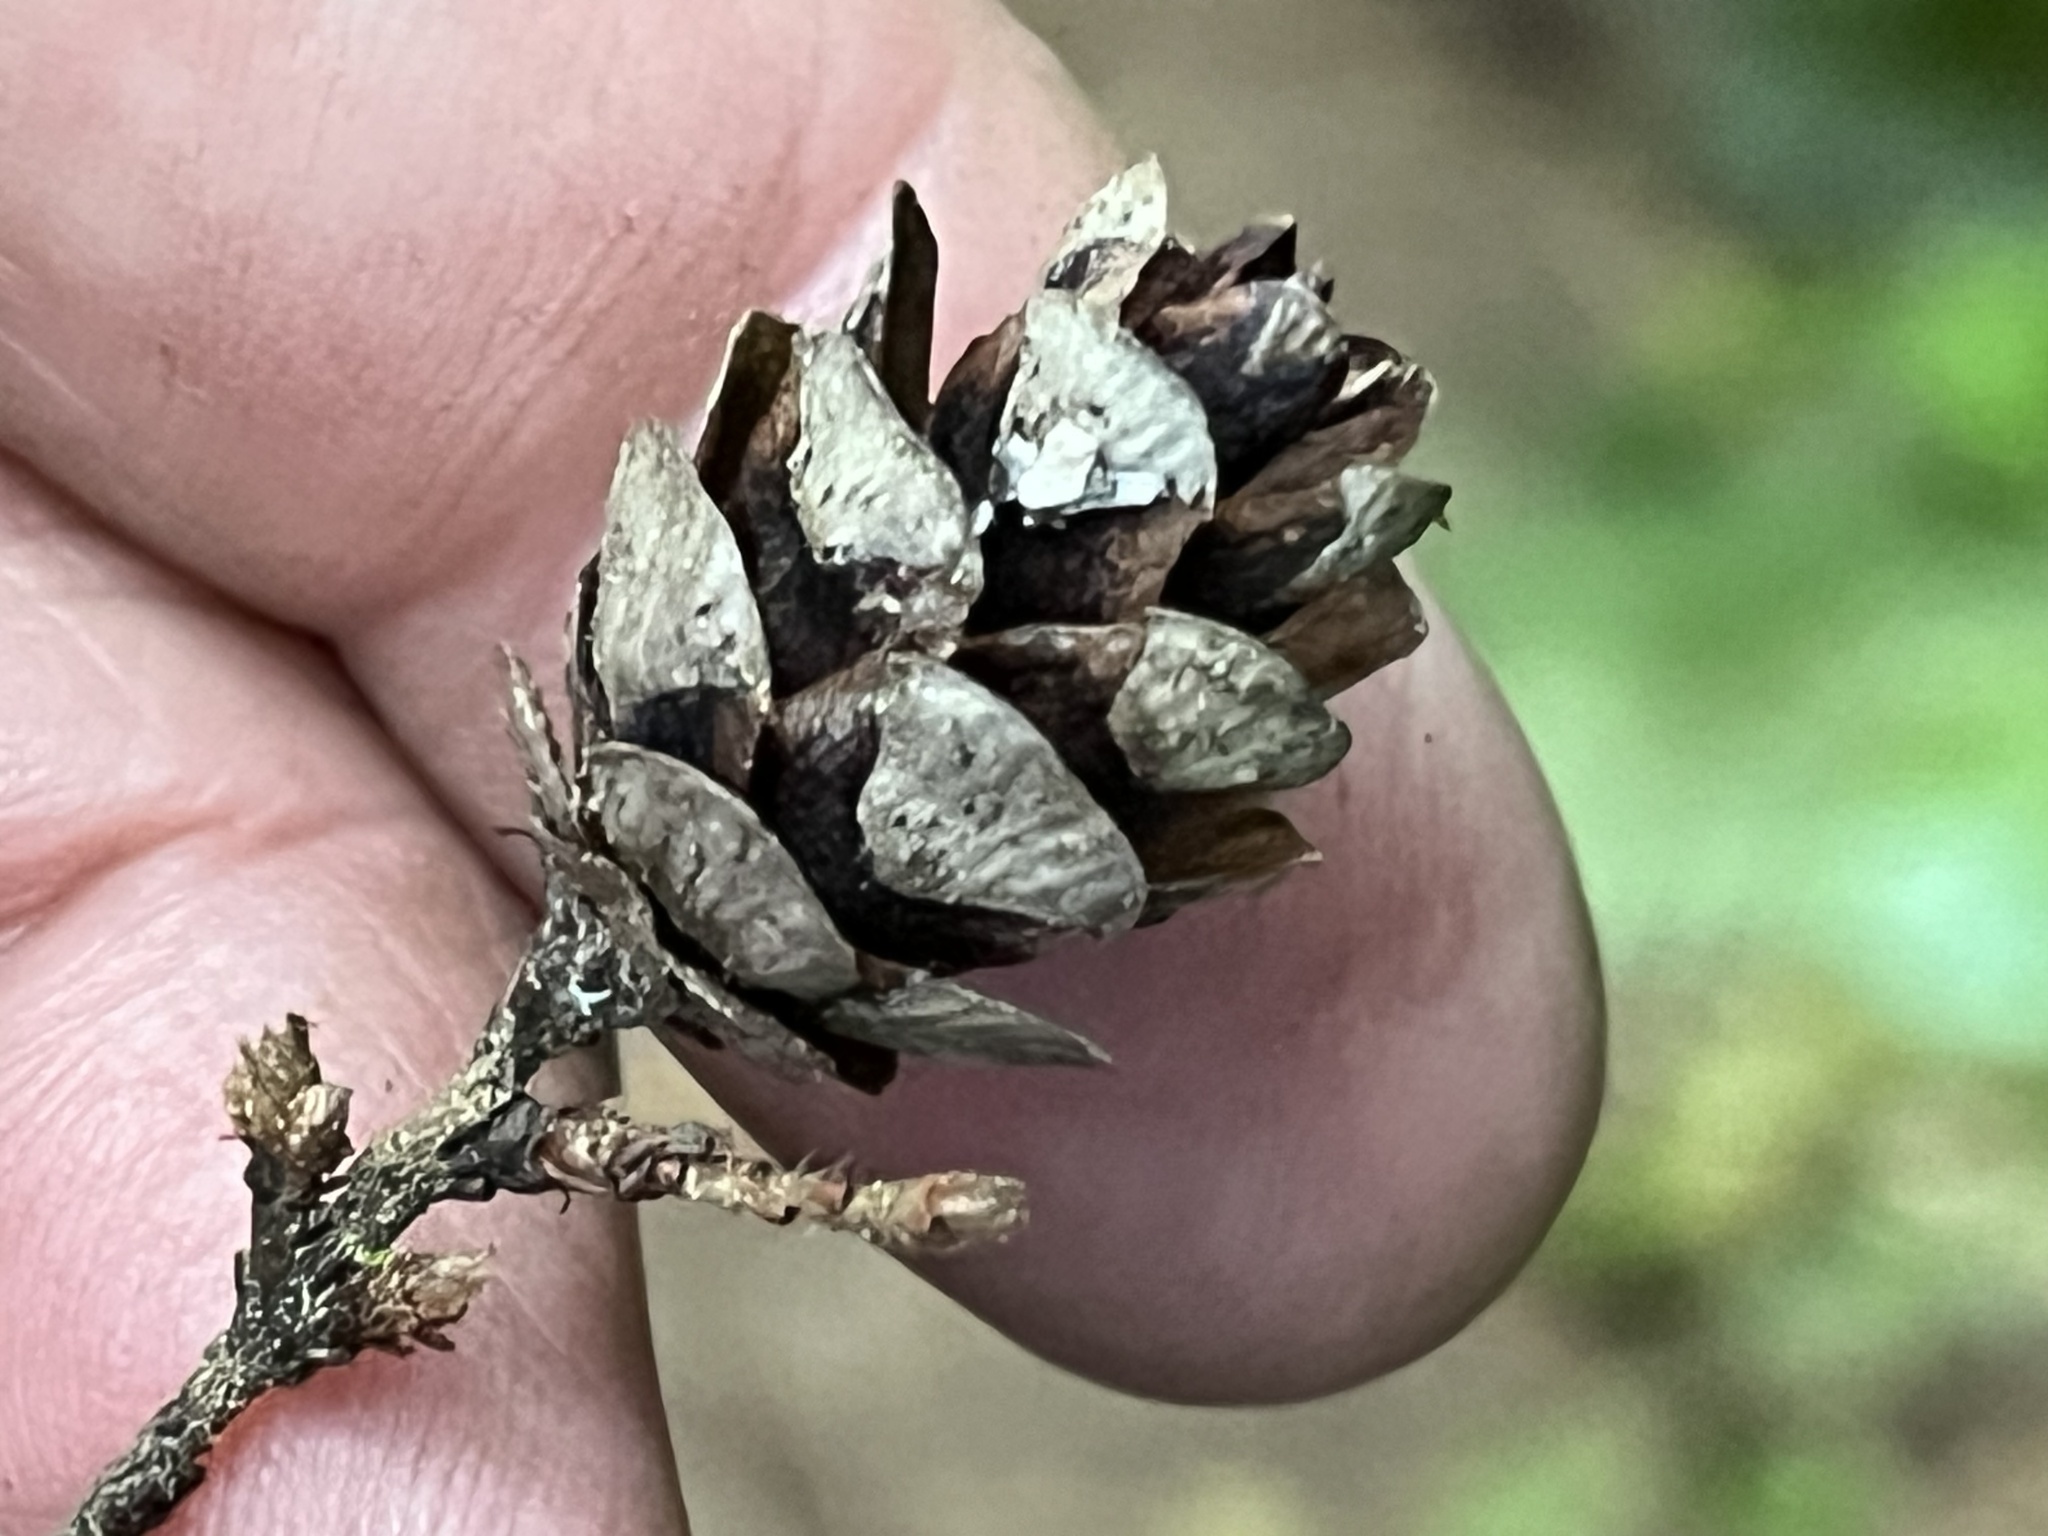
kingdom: Plantae
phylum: Tracheophyta
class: Pinopsida
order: Pinales
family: Pinaceae
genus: Tsuga
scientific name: Tsuga heterophylla
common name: Western hemlock
